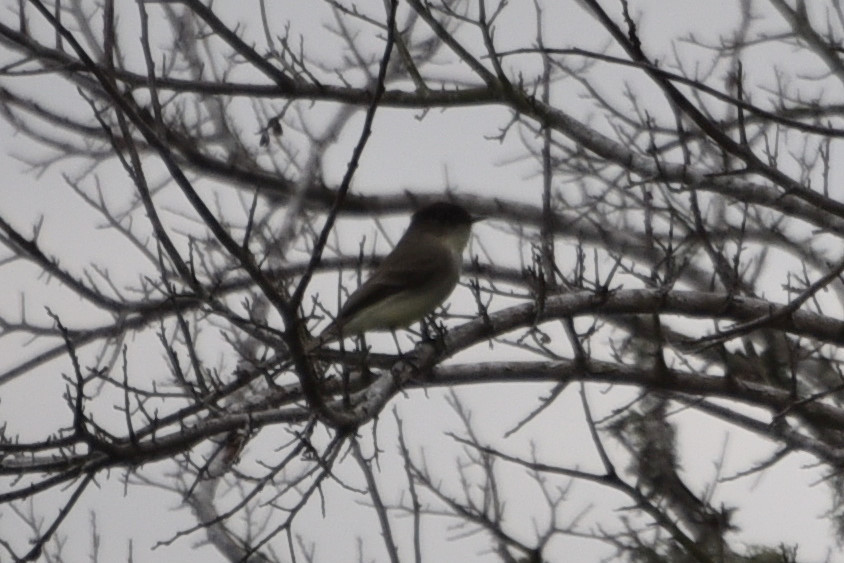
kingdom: Animalia
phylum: Chordata
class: Aves
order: Passeriformes
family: Tyrannidae
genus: Sayornis
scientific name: Sayornis phoebe
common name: Eastern phoebe
